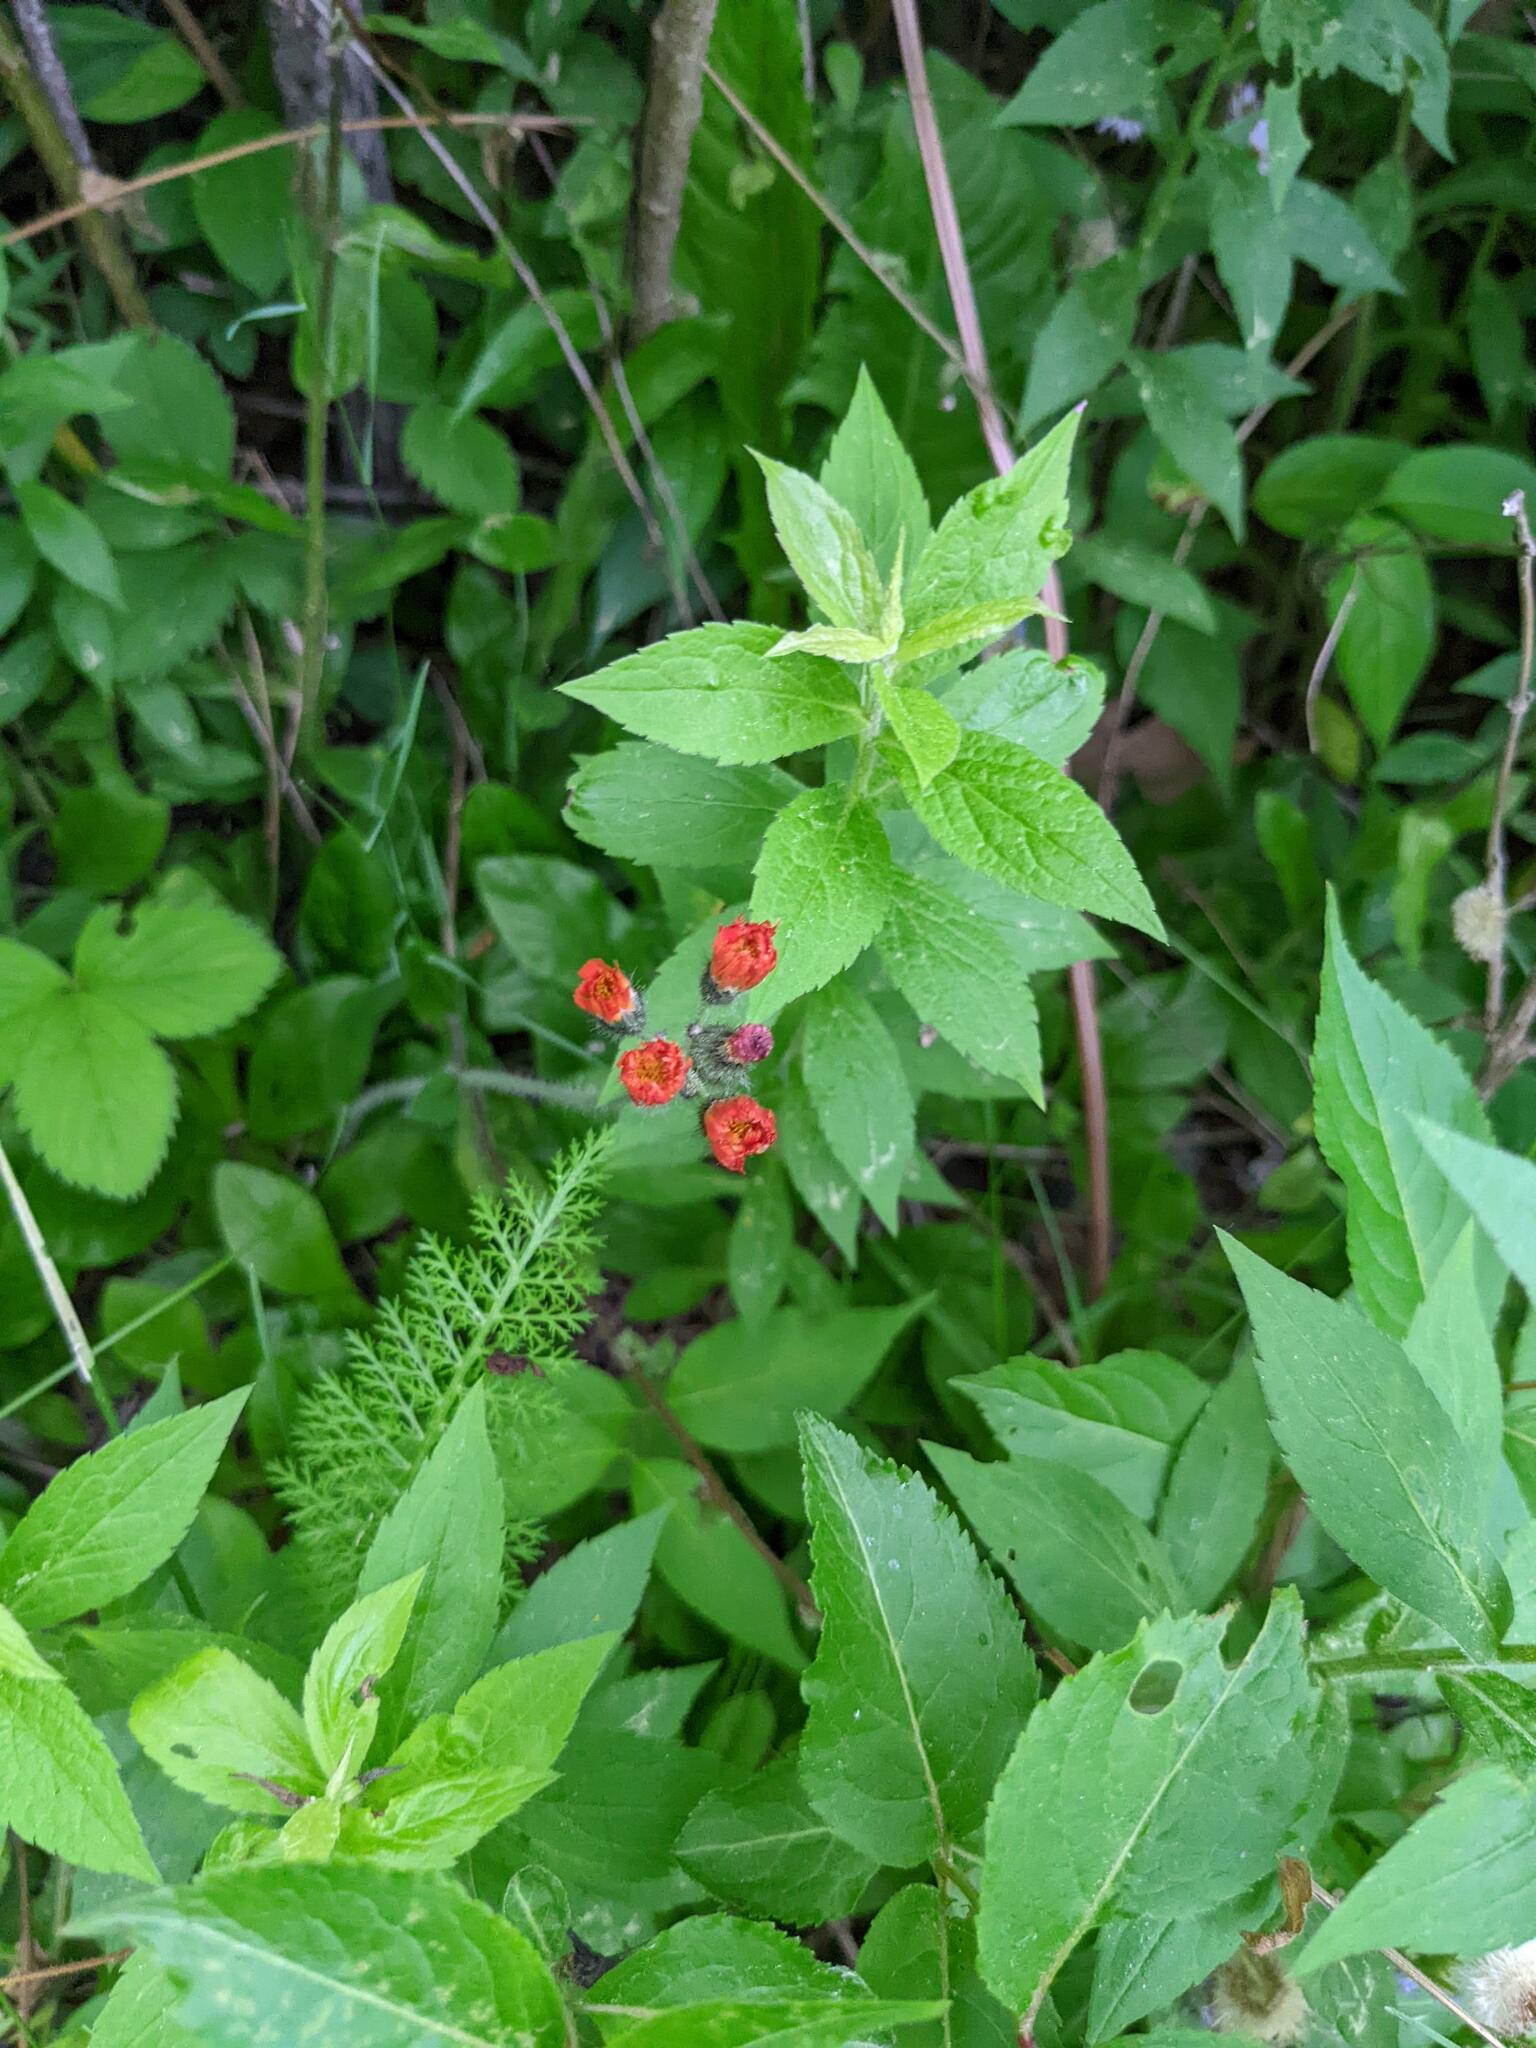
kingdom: Plantae
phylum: Tracheophyta
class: Magnoliopsida
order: Asterales
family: Asteraceae
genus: Pilosella
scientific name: Pilosella aurantiaca
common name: Fox-and-cubs
